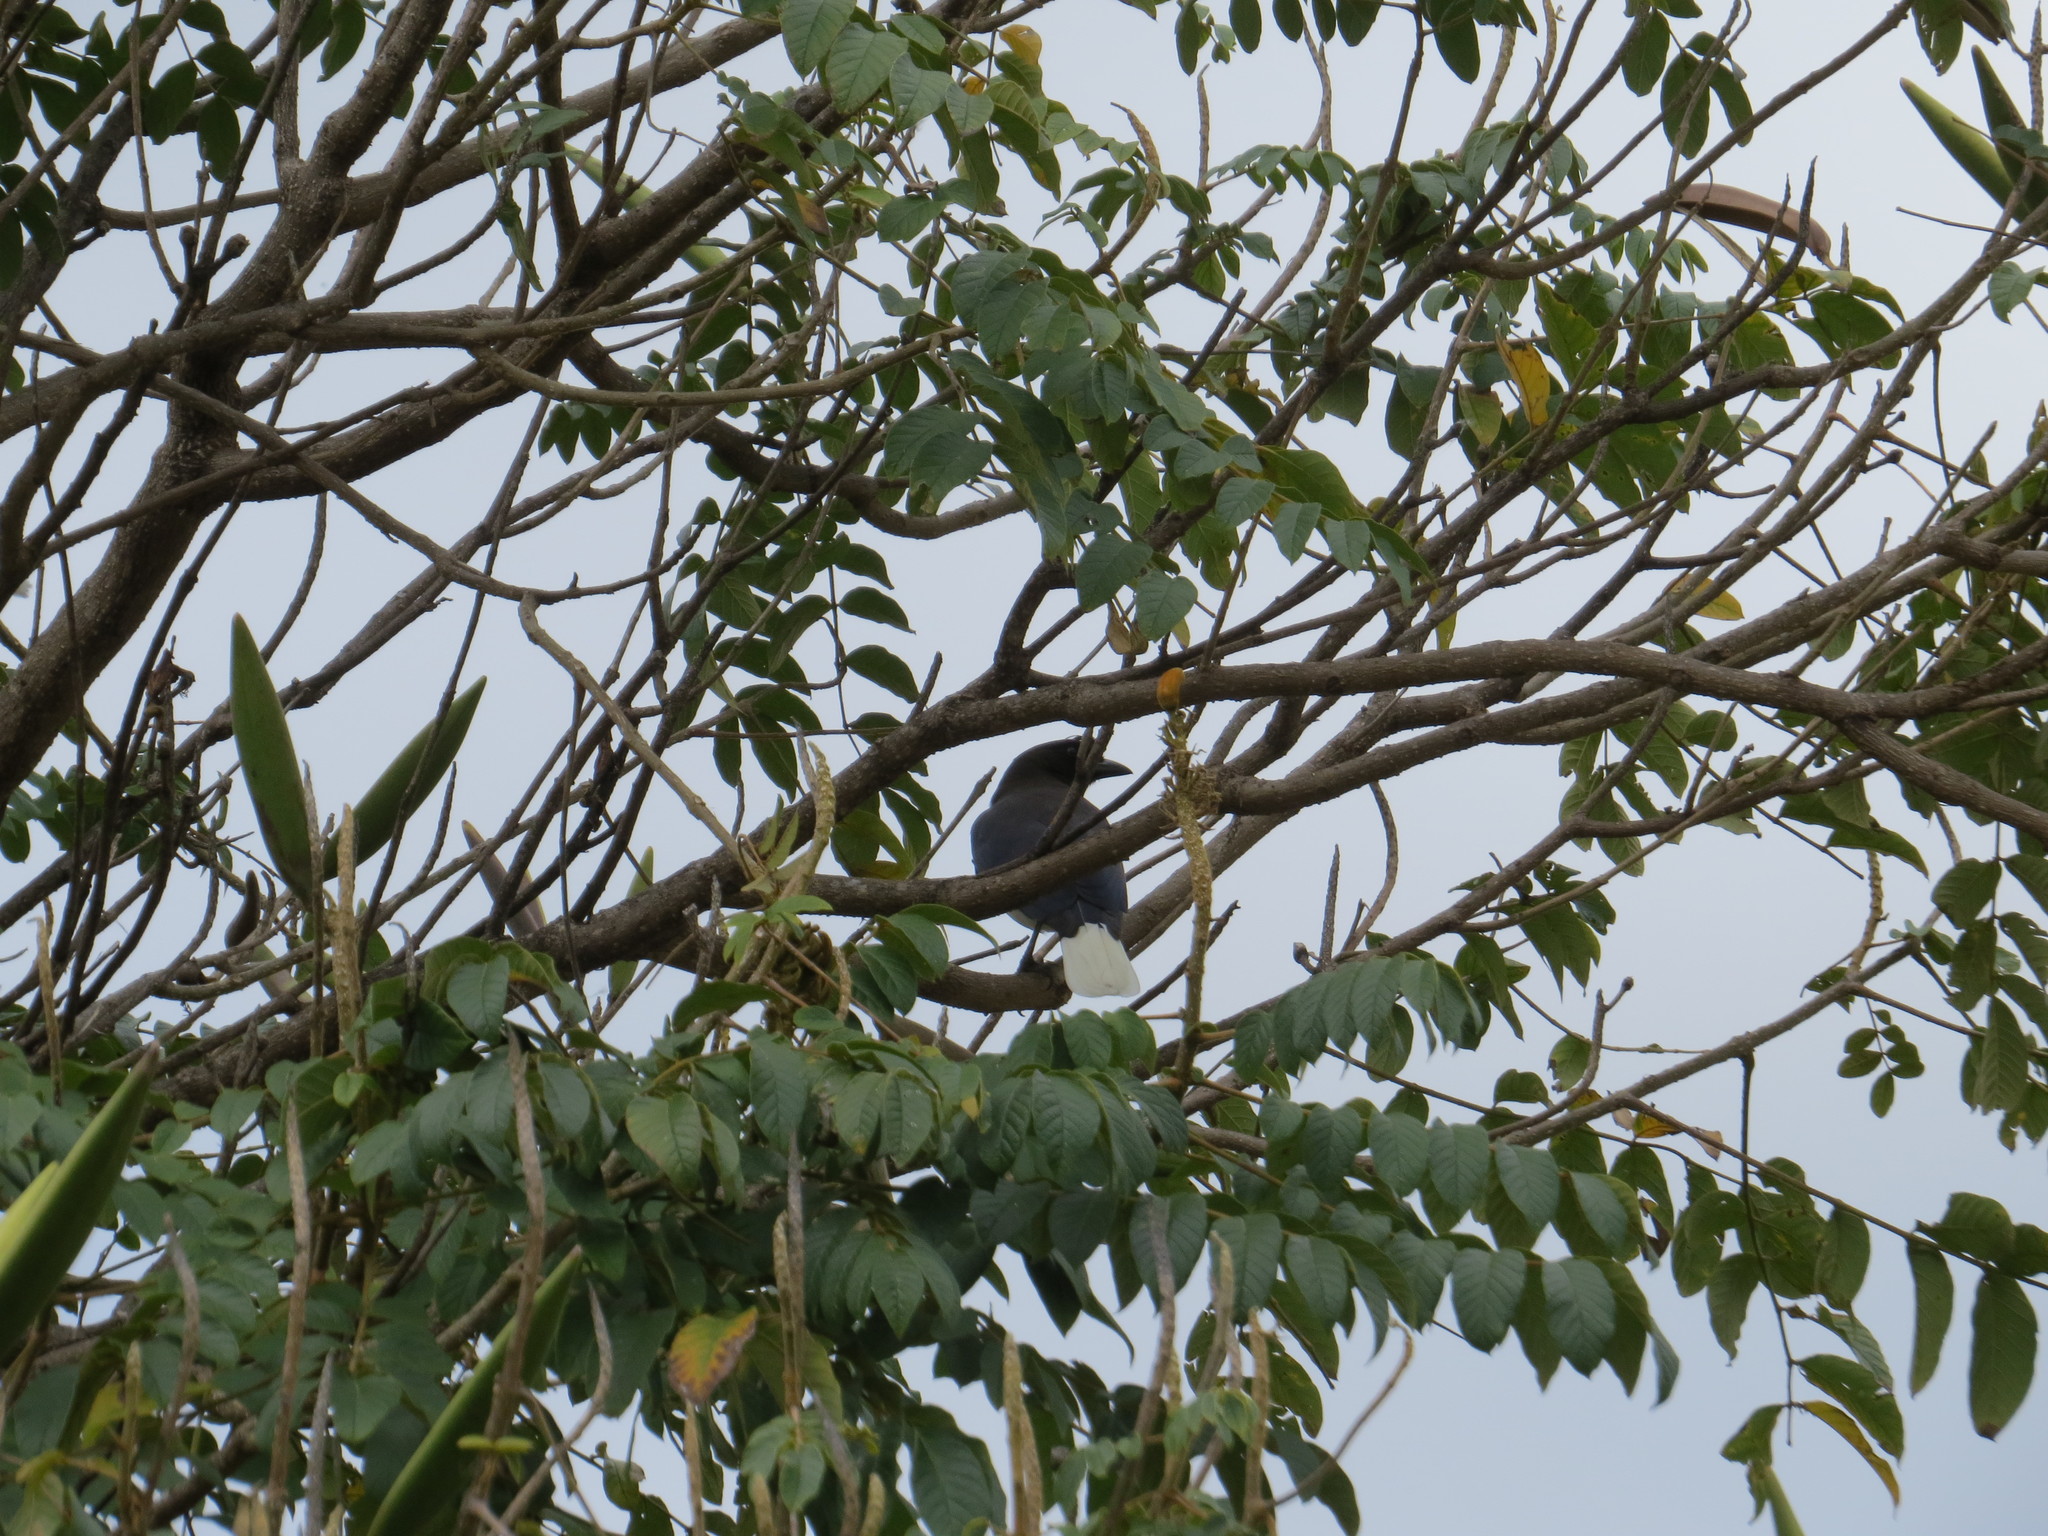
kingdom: Animalia
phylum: Chordata
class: Aves
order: Passeriformes
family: Corvidae
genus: Cyanocorax
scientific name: Cyanocorax cristatellus
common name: Curl-crested jay
